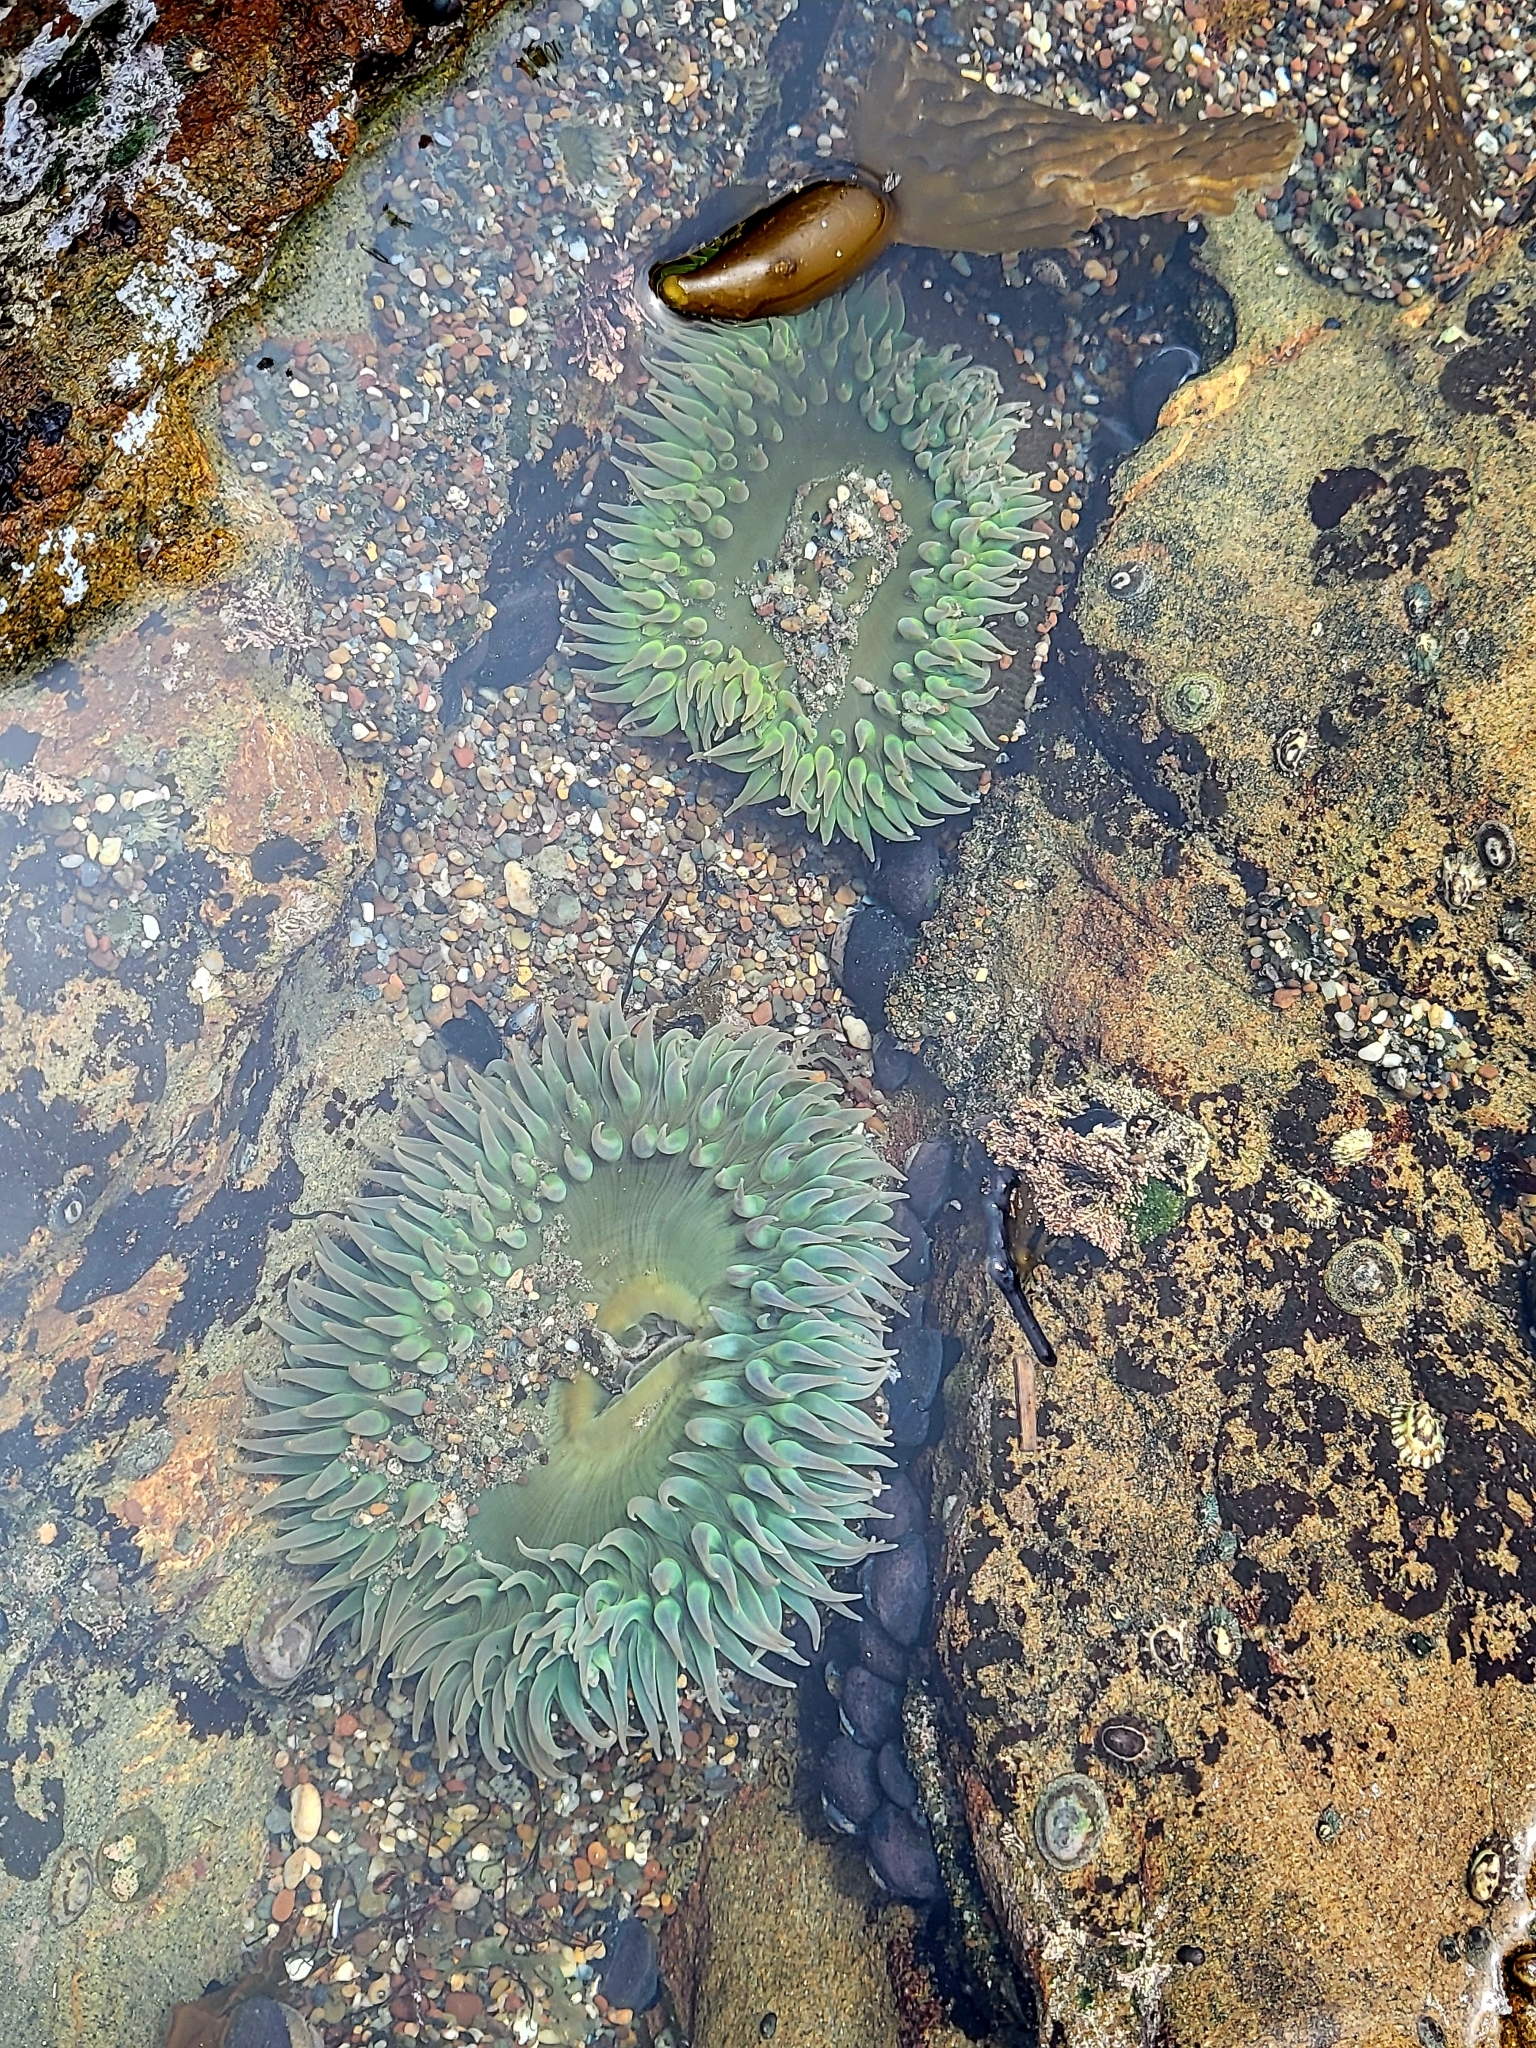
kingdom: Animalia
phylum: Cnidaria
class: Anthozoa
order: Actiniaria
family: Actiniidae
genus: Anthopleura
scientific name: Anthopleura xanthogrammica
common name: Giant green anemone
